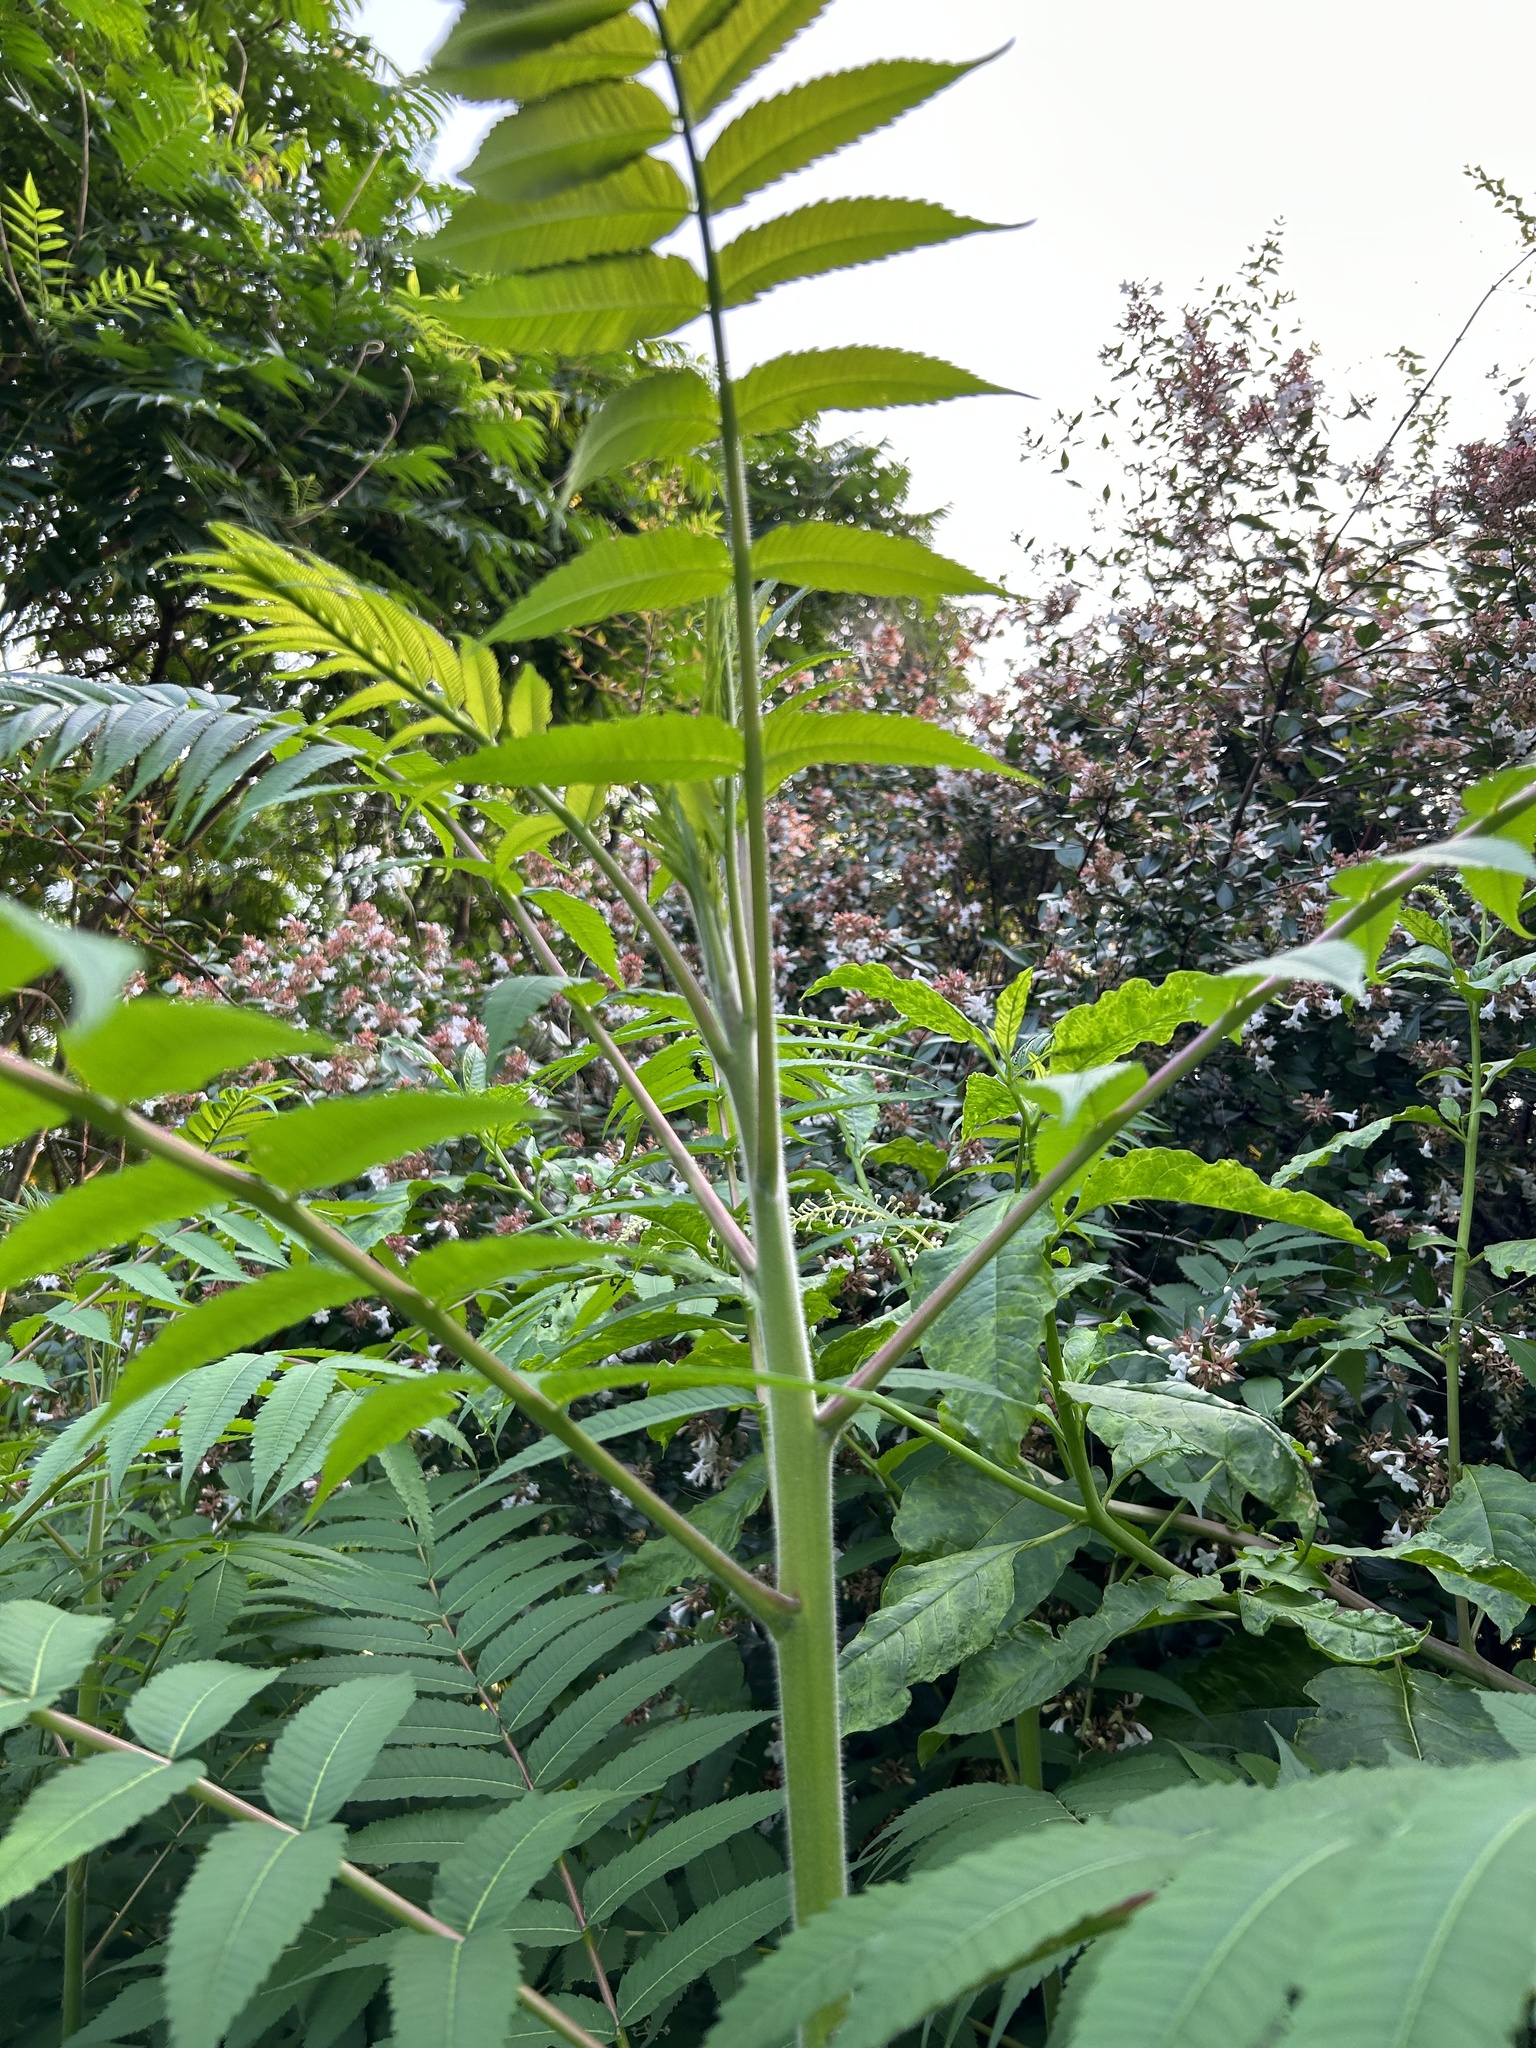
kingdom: Plantae
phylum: Tracheophyta
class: Magnoliopsida
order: Sapindales
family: Anacardiaceae
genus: Rhus
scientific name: Rhus typhina
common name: Staghorn sumac
